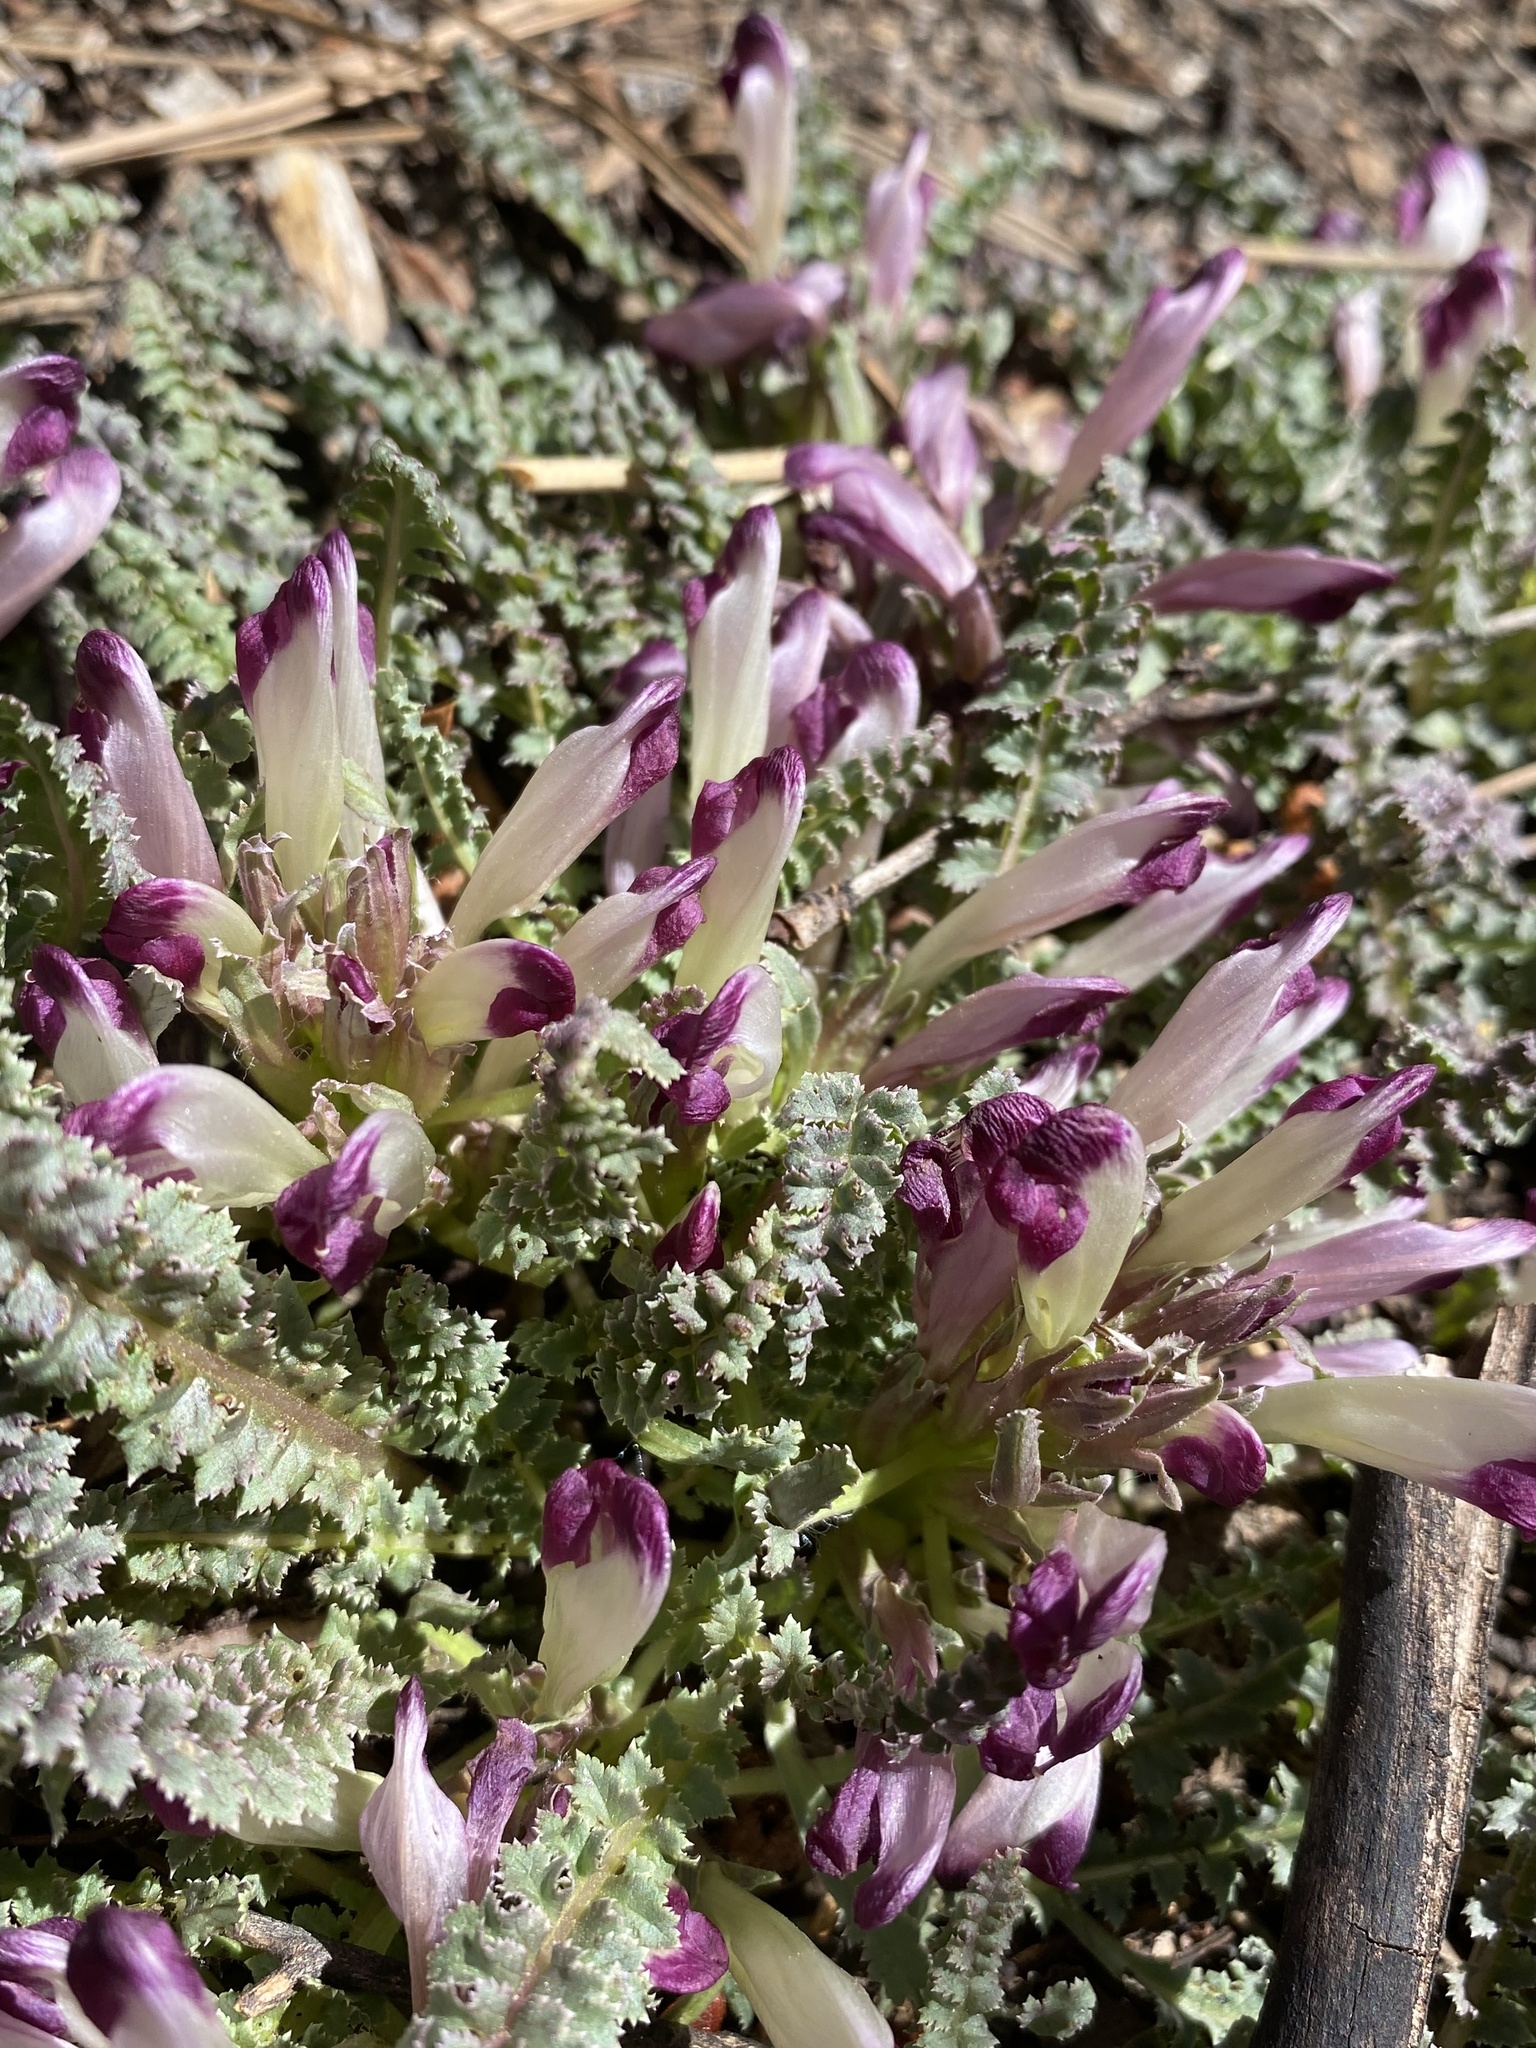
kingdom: Plantae
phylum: Tracheophyta
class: Magnoliopsida
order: Lamiales
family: Orobanchaceae
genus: Pedicularis
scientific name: Pedicularis centranthera
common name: Dwarf lousewort
